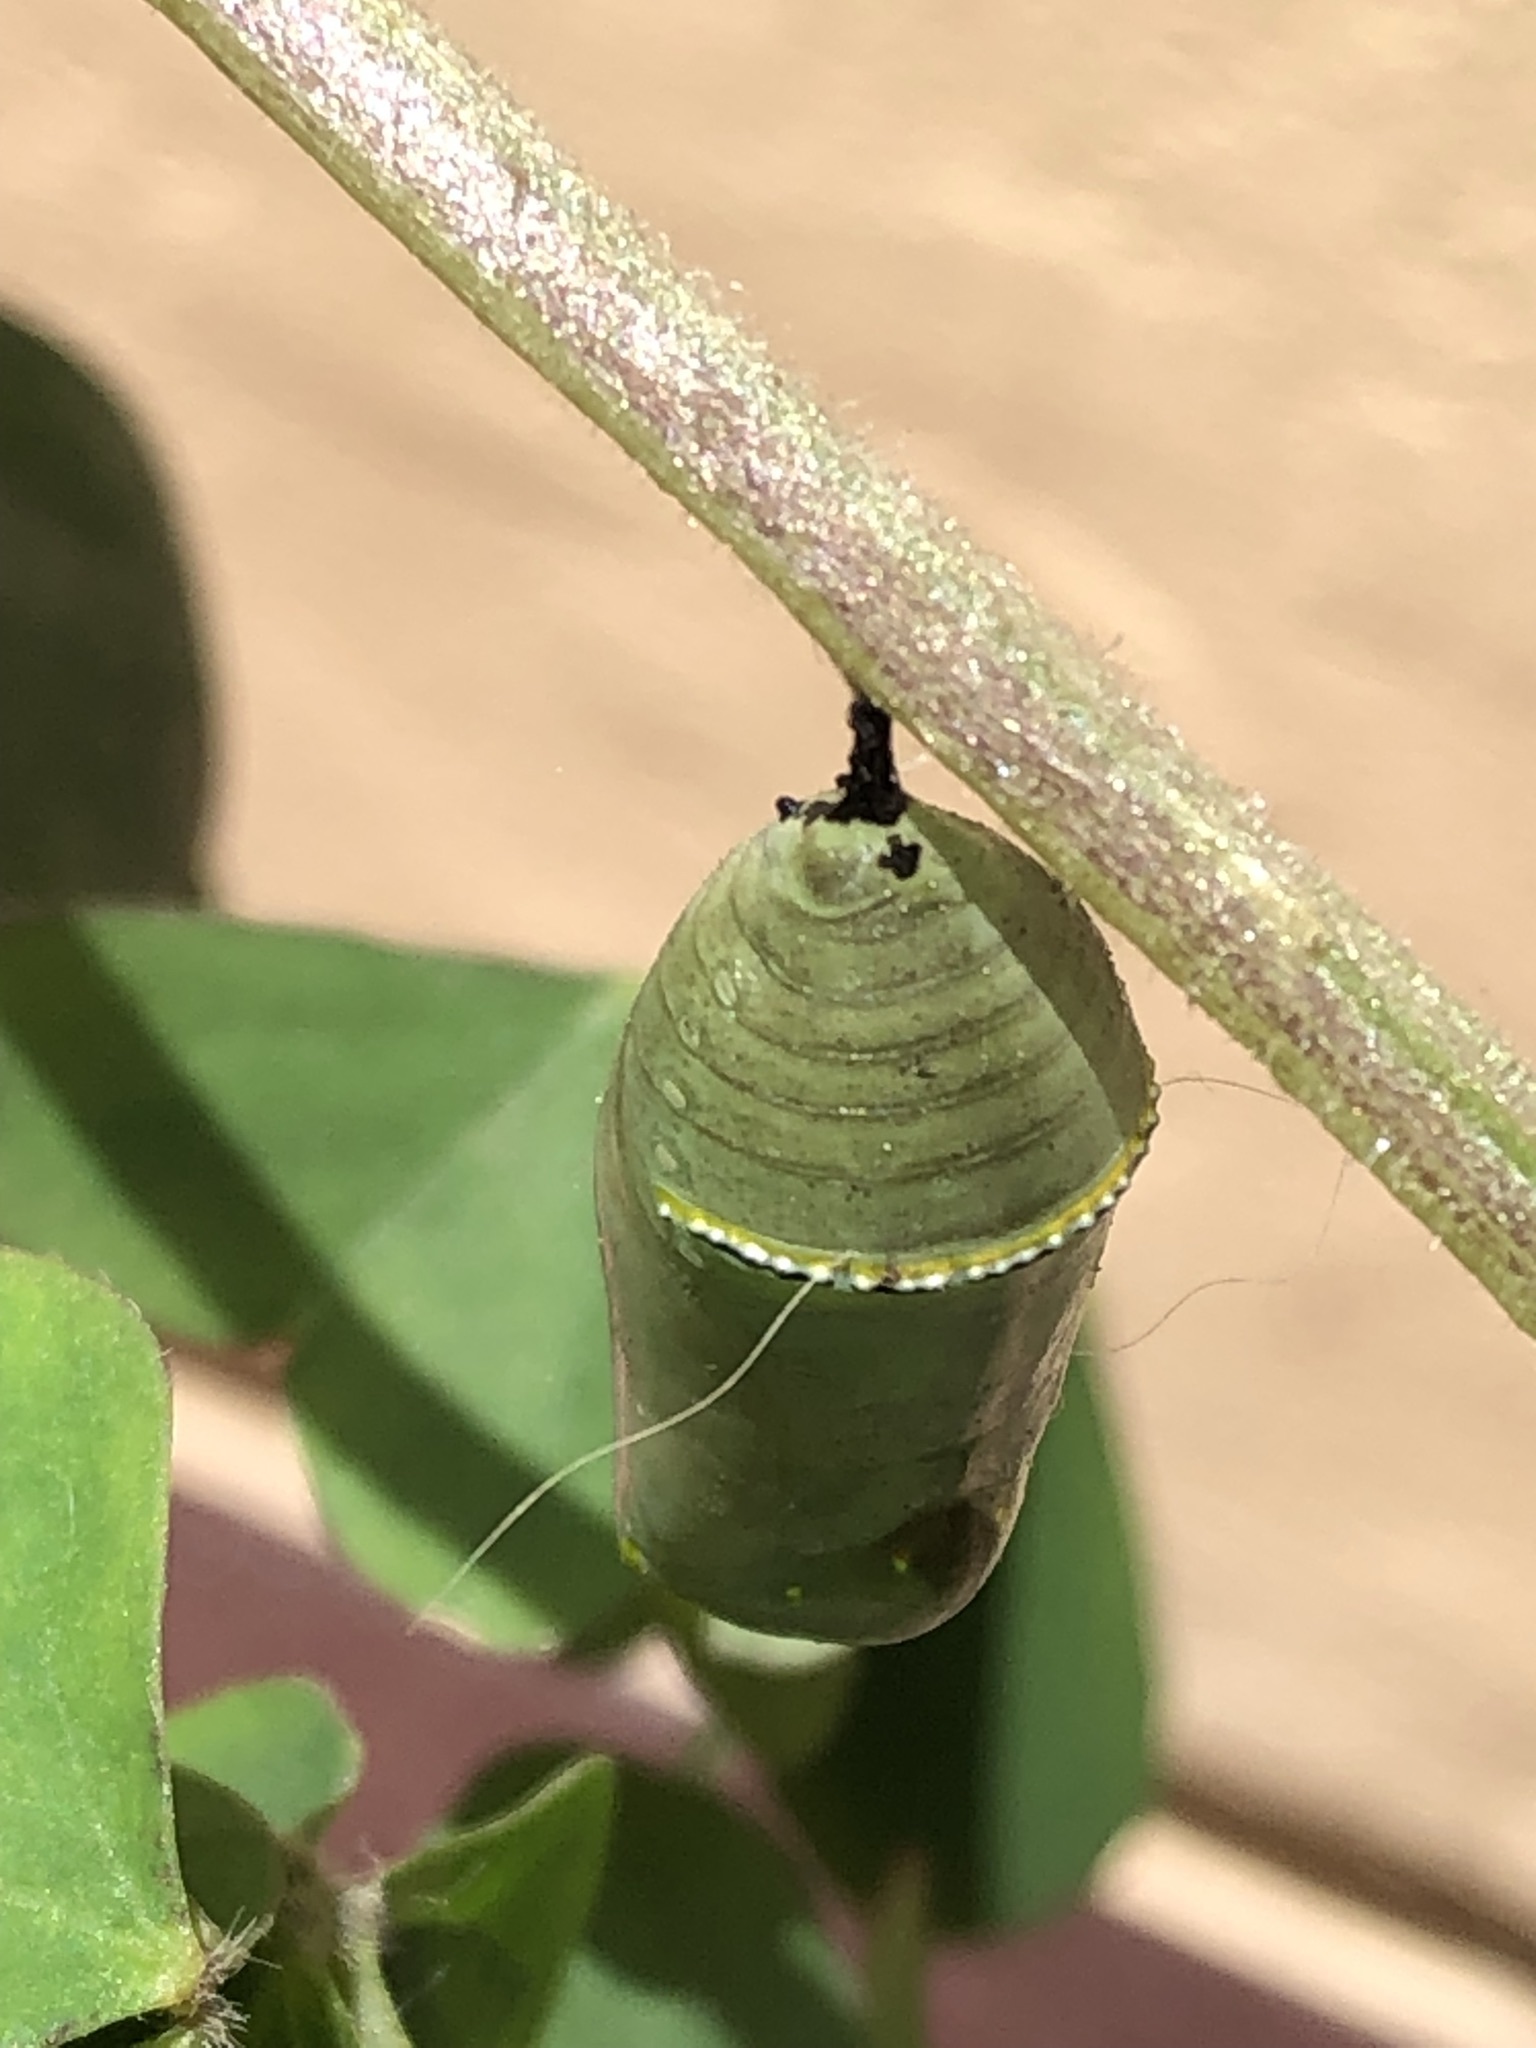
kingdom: Animalia
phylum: Arthropoda
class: Insecta
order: Lepidoptera
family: Nymphalidae
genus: Danaus
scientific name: Danaus plexippus
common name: Monarch
